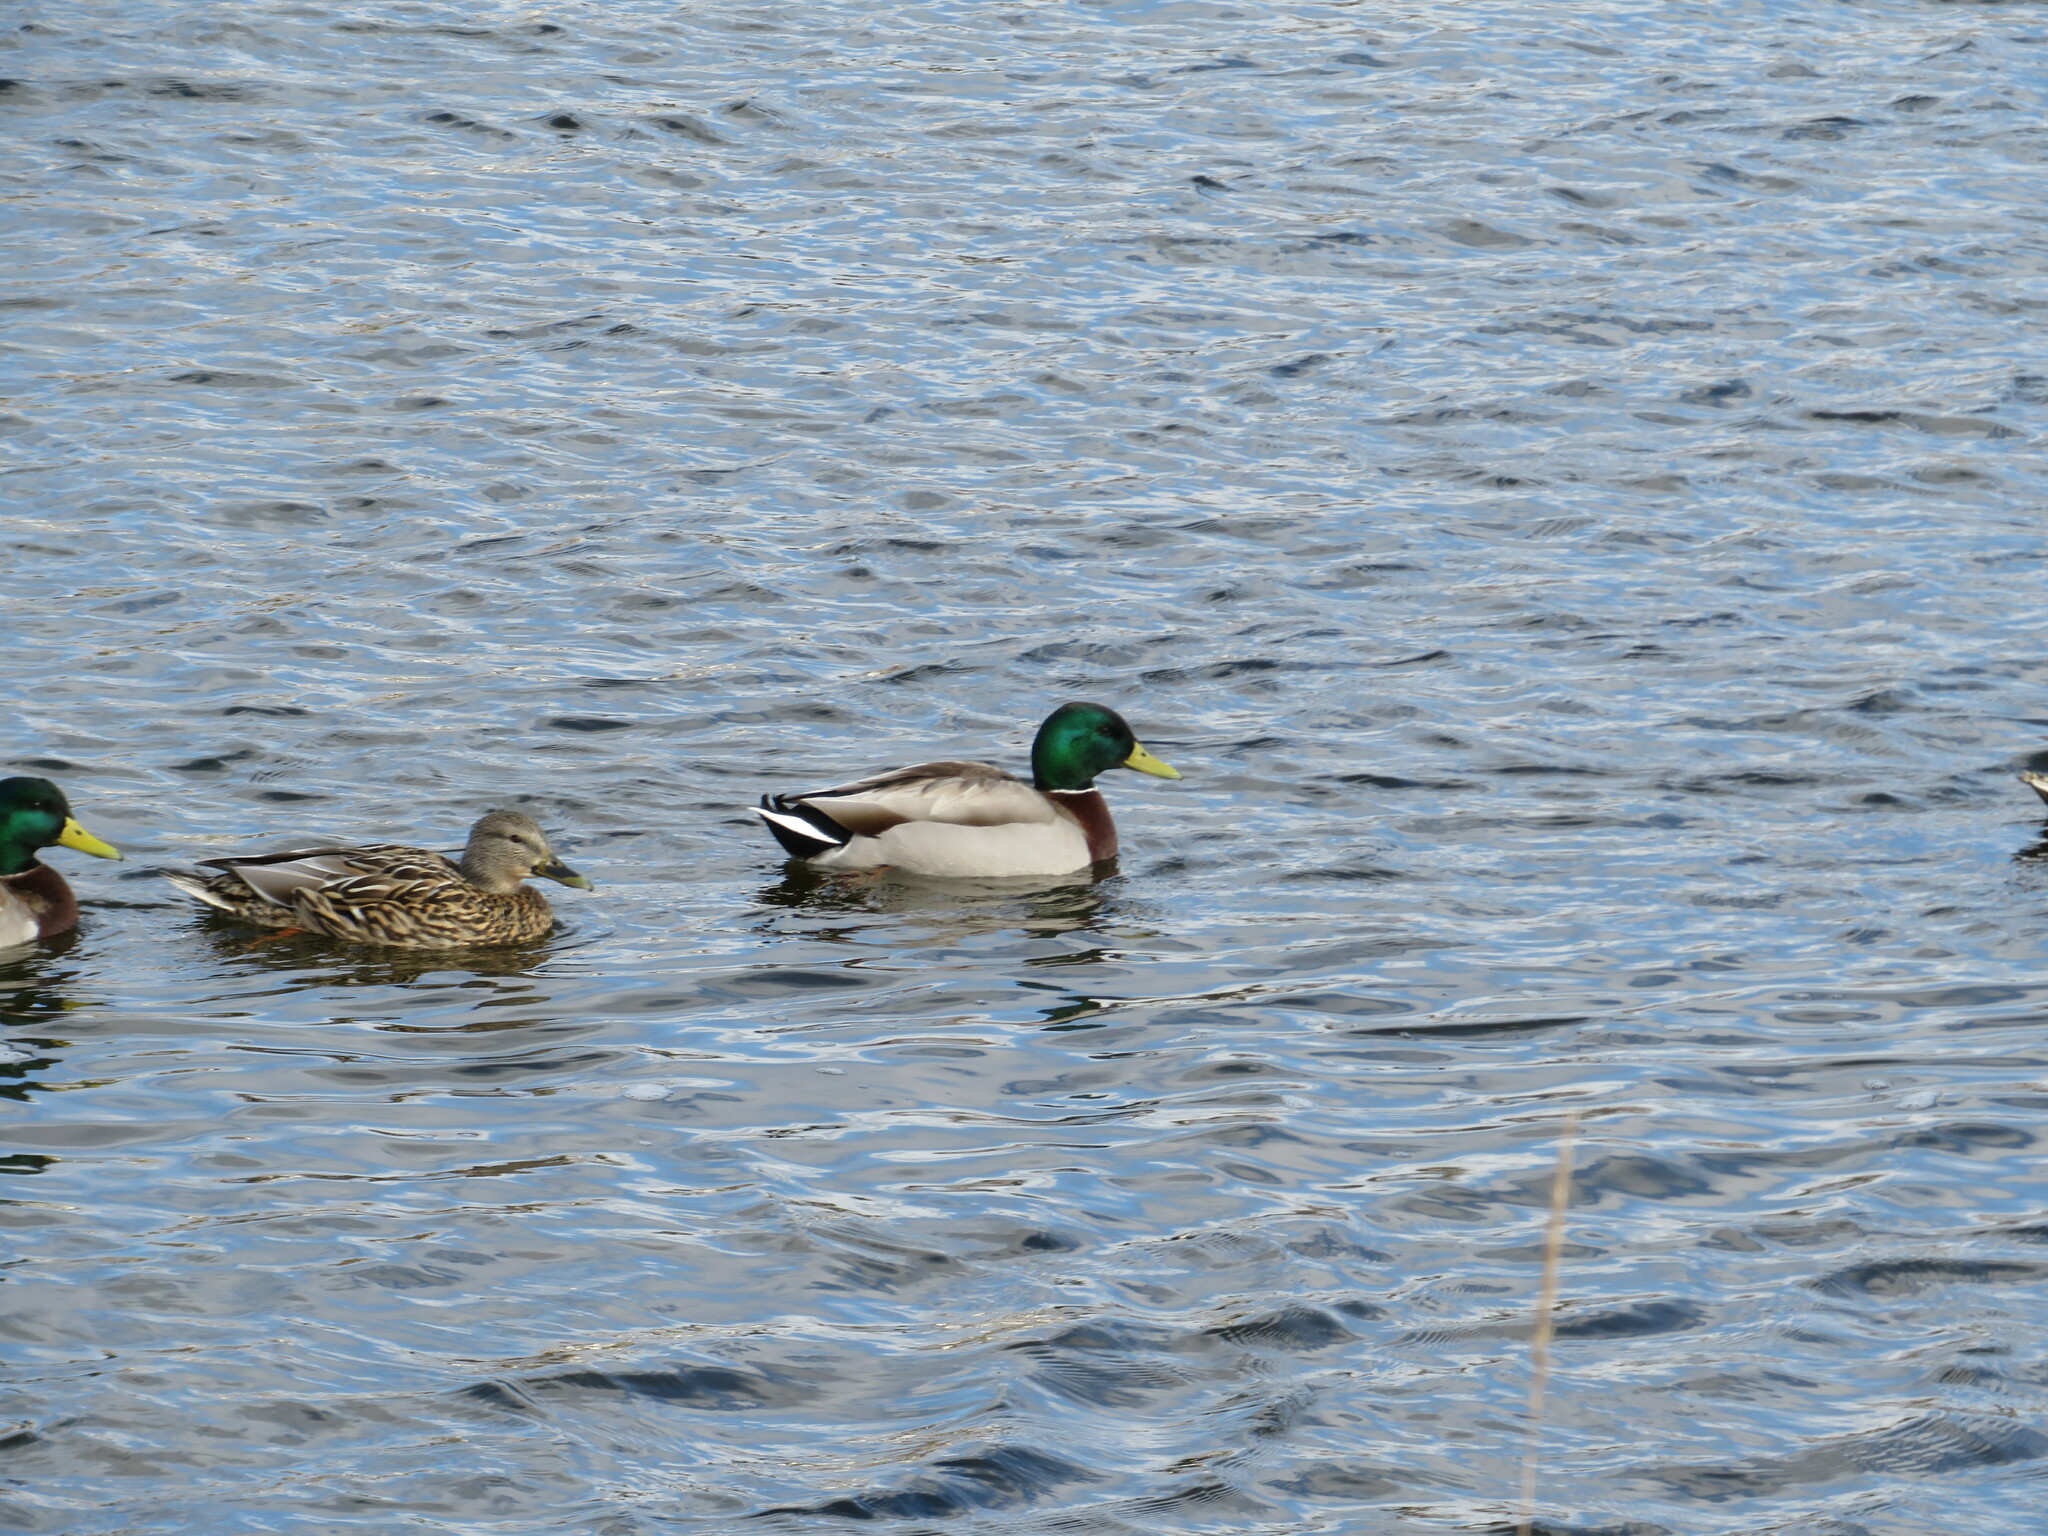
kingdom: Animalia
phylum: Chordata
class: Aves
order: Anseriformes
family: Anatidae
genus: Anas
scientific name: Anas platyrhynchos
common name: Mallard
